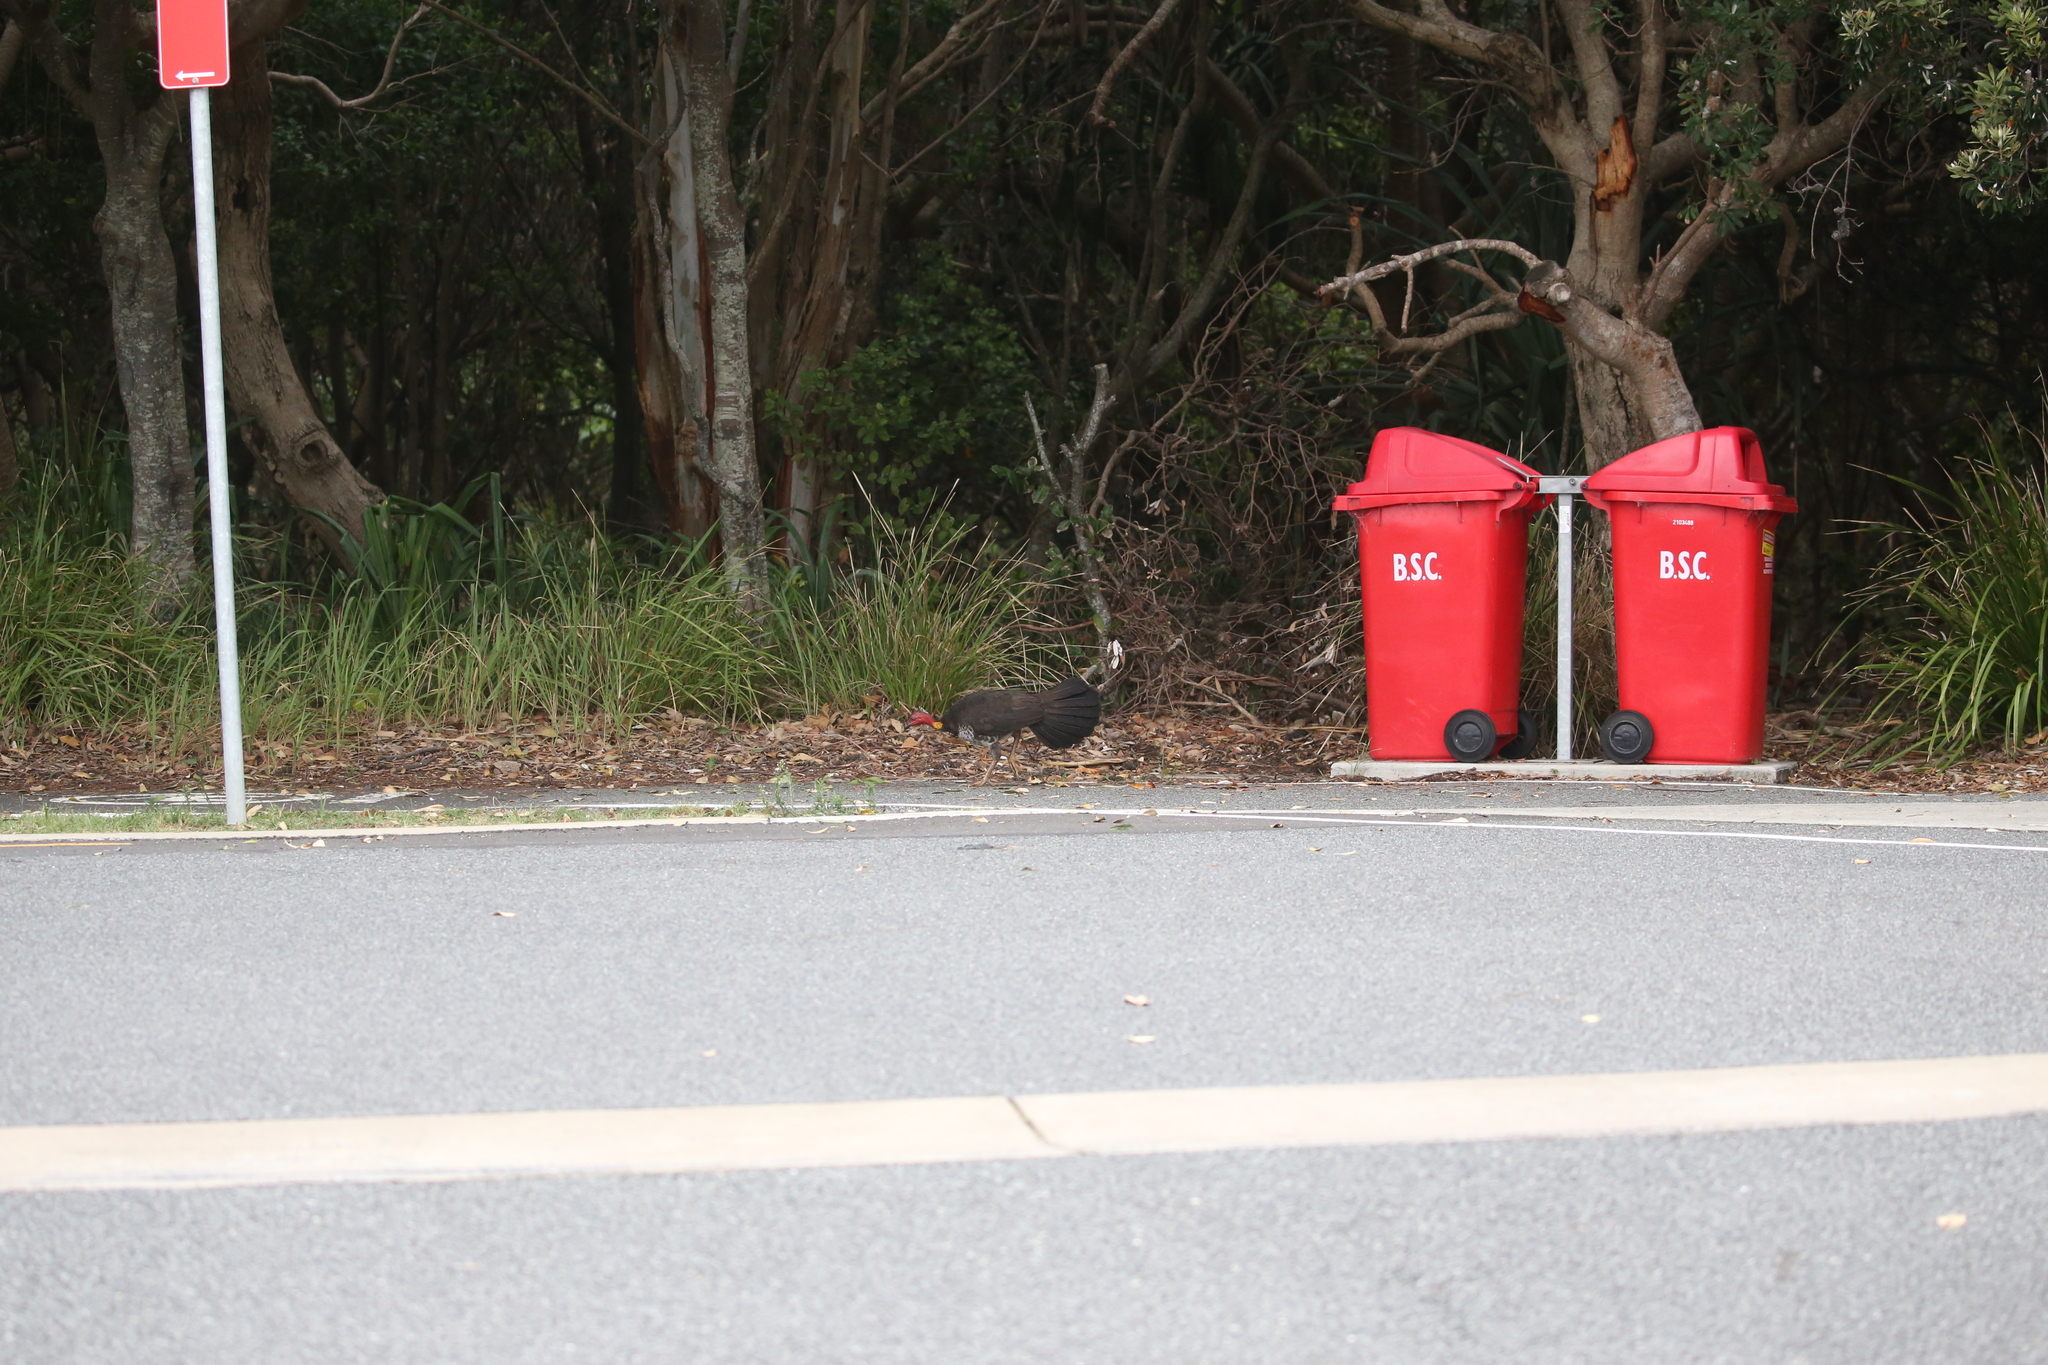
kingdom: Animalia
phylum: Chordata
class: Aves
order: Galliformes
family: Megapodiidae
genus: Alectura
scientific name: Alectura lathami
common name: Australian brushturkey
